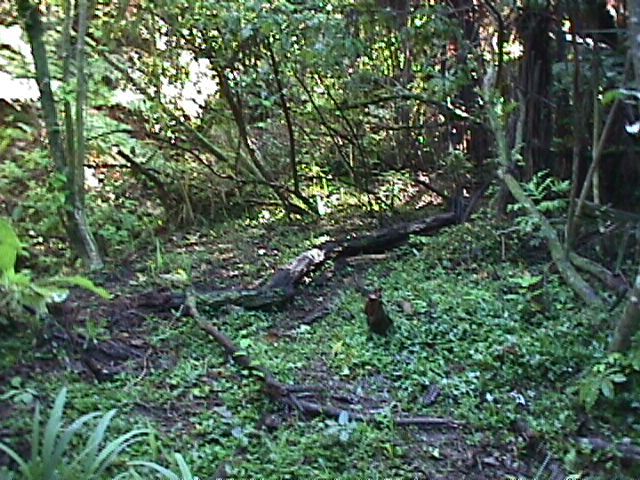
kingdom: Plantae
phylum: Tracheophyta
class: Liliopsida
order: Asparagales
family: Iridaceae
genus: Crocosmia
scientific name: Crocosmia crocosmiiflora
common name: Montbretia
